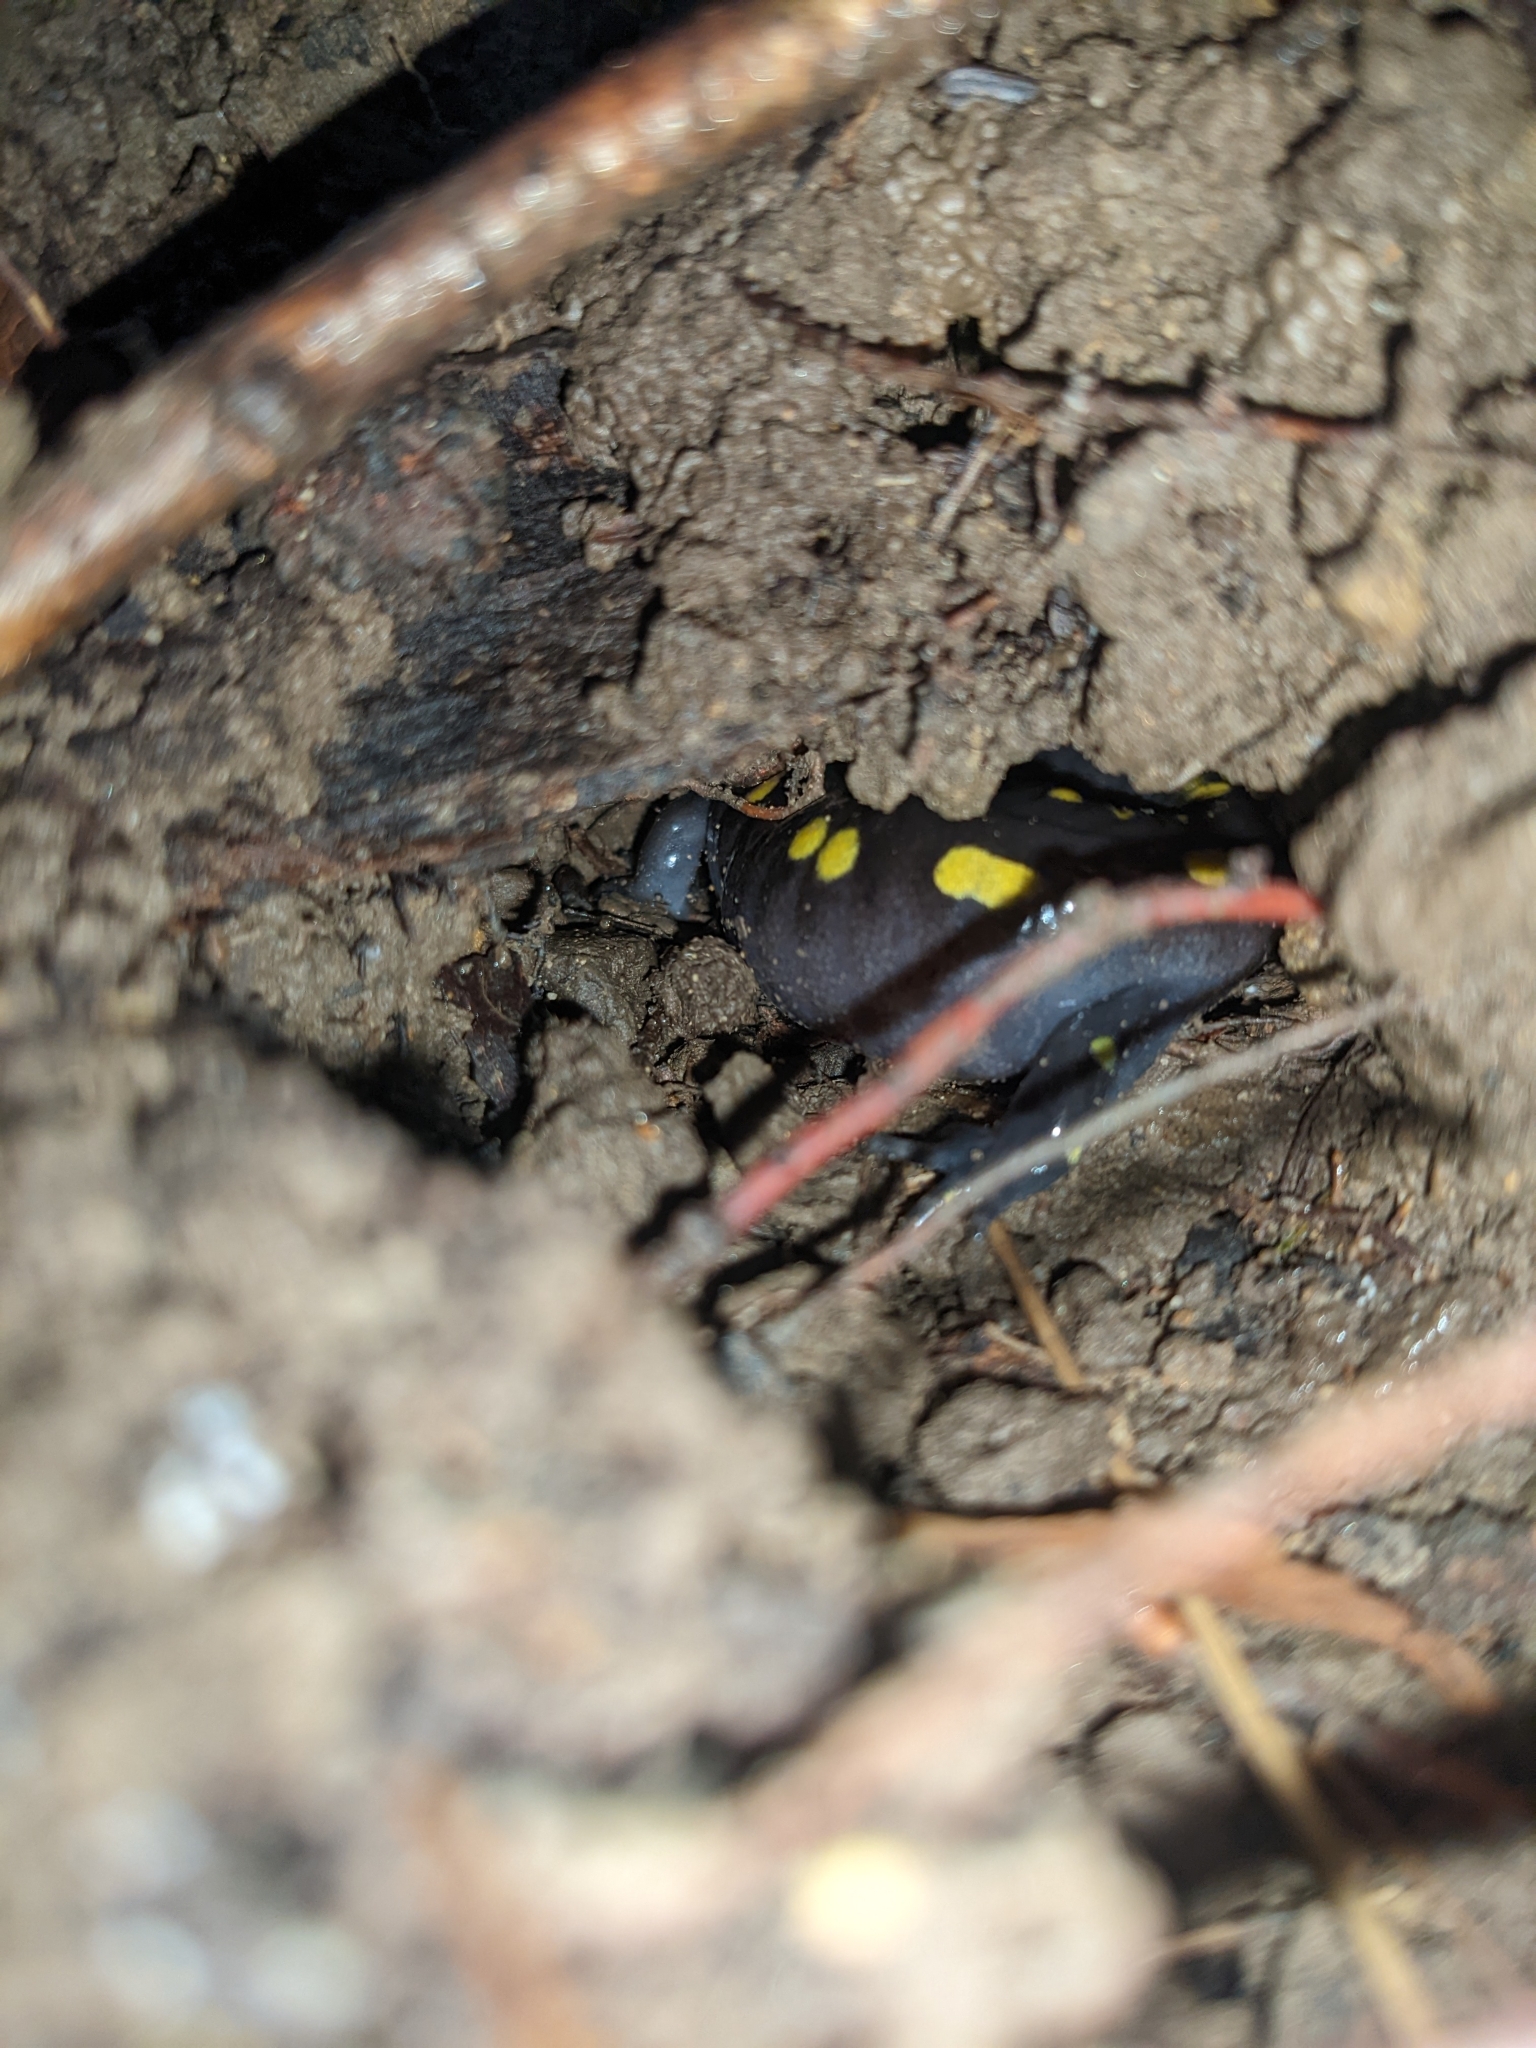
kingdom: Animalia
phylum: Chordata
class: Amphibia
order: Caudata
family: Ambystomatidae
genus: Ambystoma
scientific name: Ambystoma maculatum
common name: Spotted salamander
